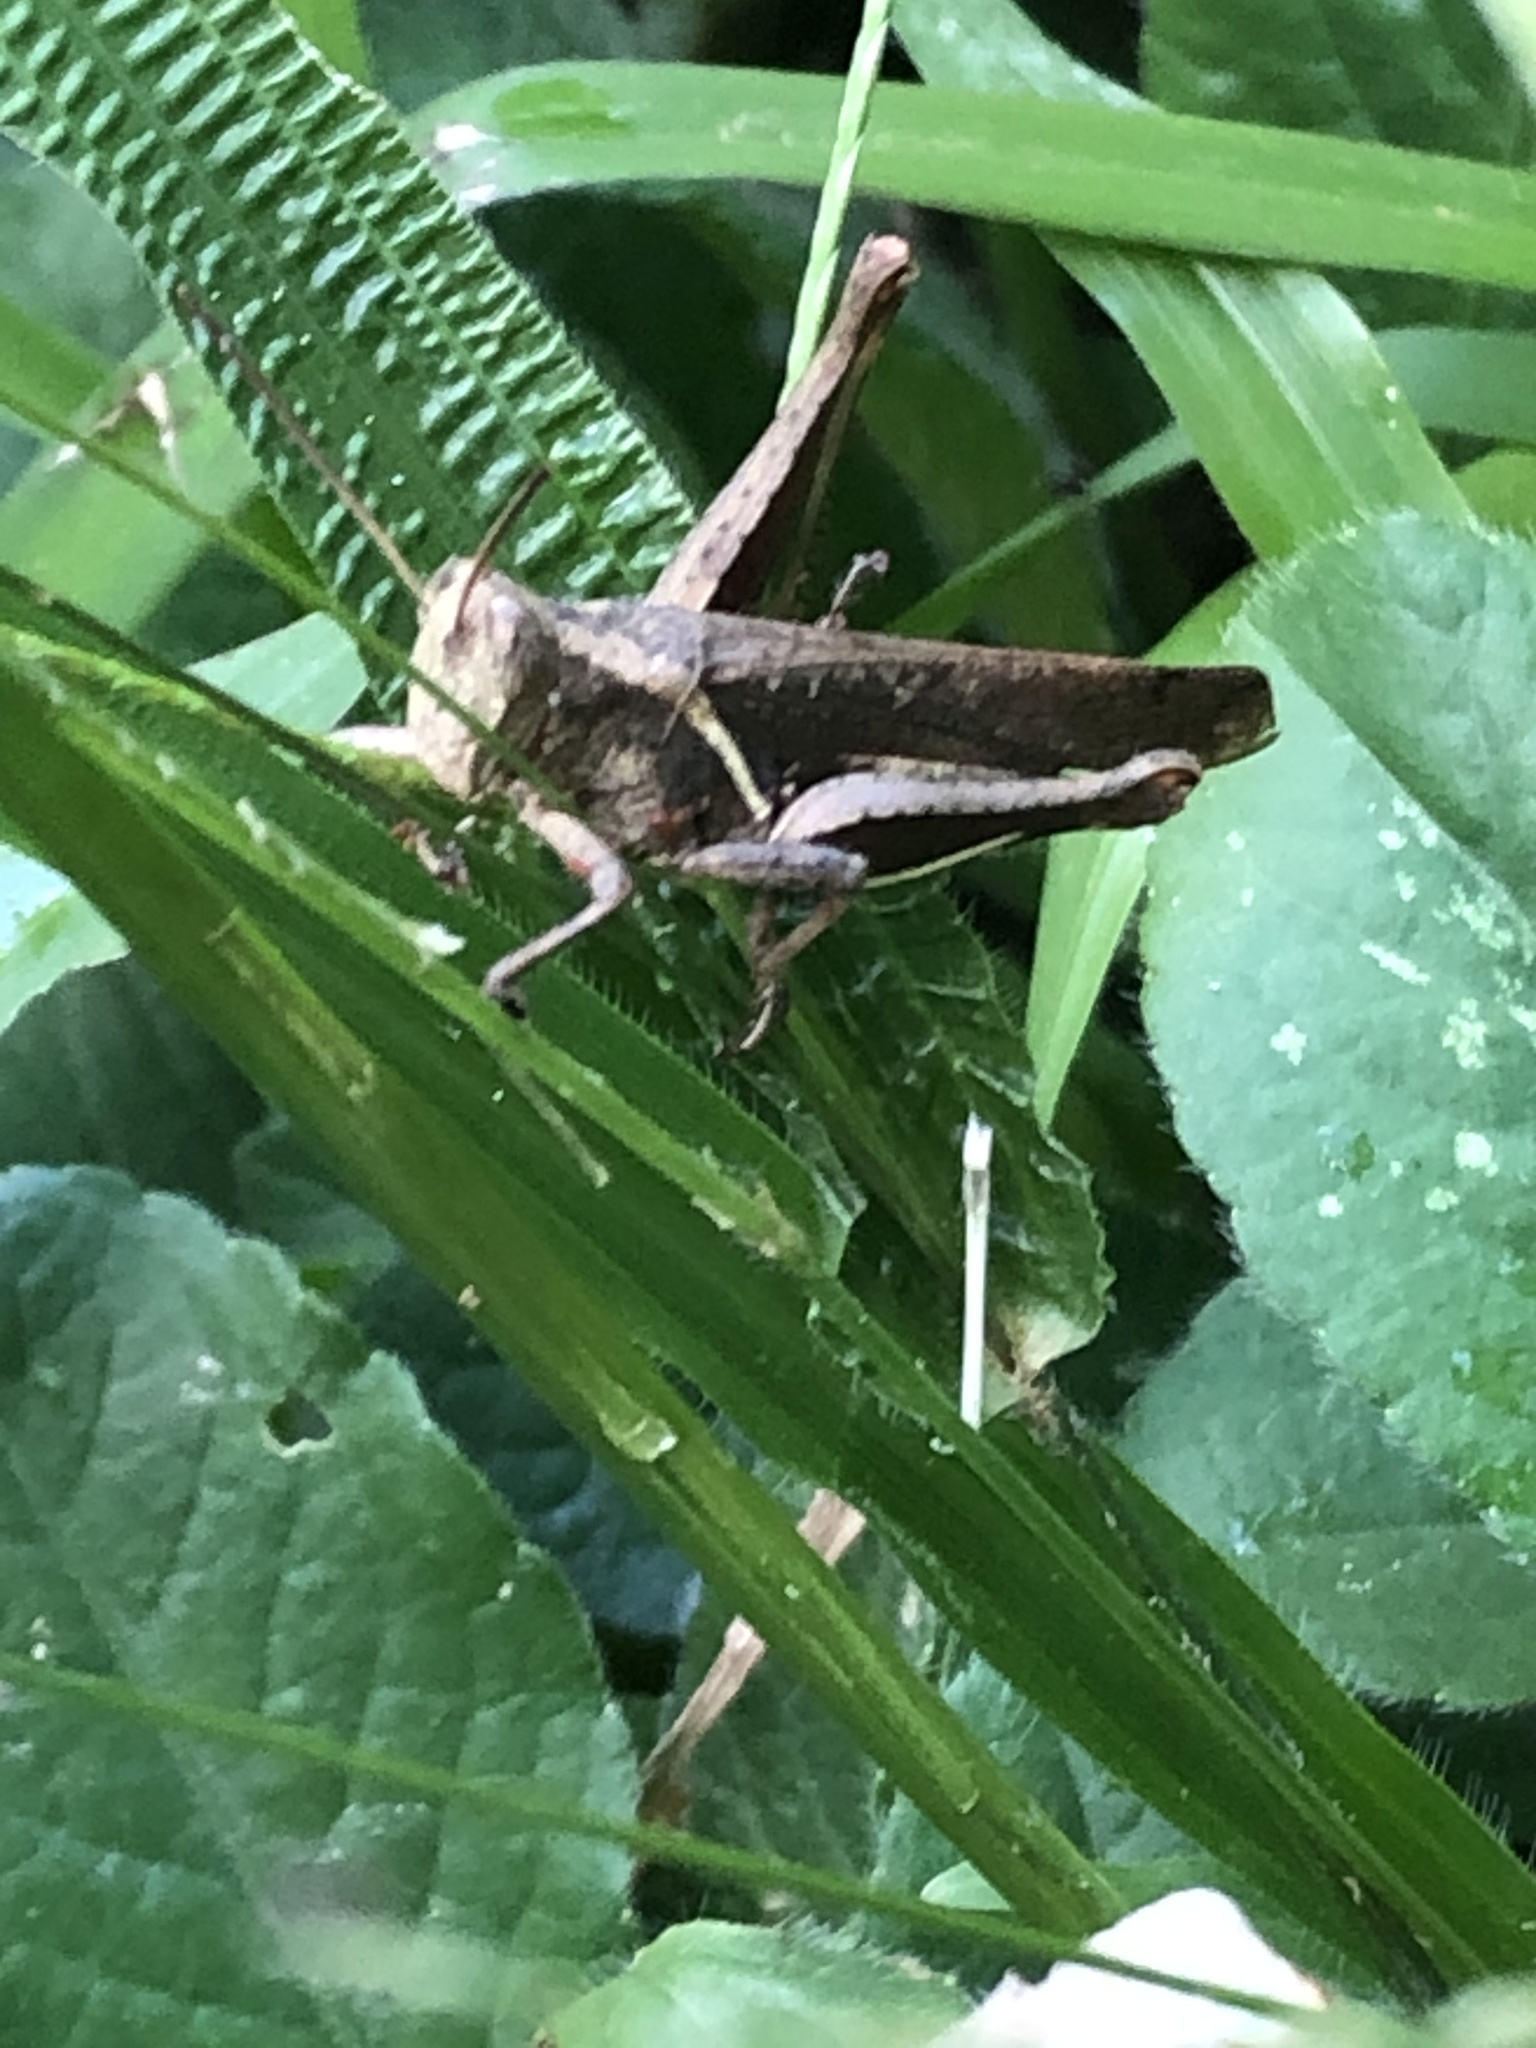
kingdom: Animalia
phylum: Arthropoda
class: Insecta
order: Orthoptera
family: Acrididae
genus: Abracris
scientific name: Abracris flavolineata
